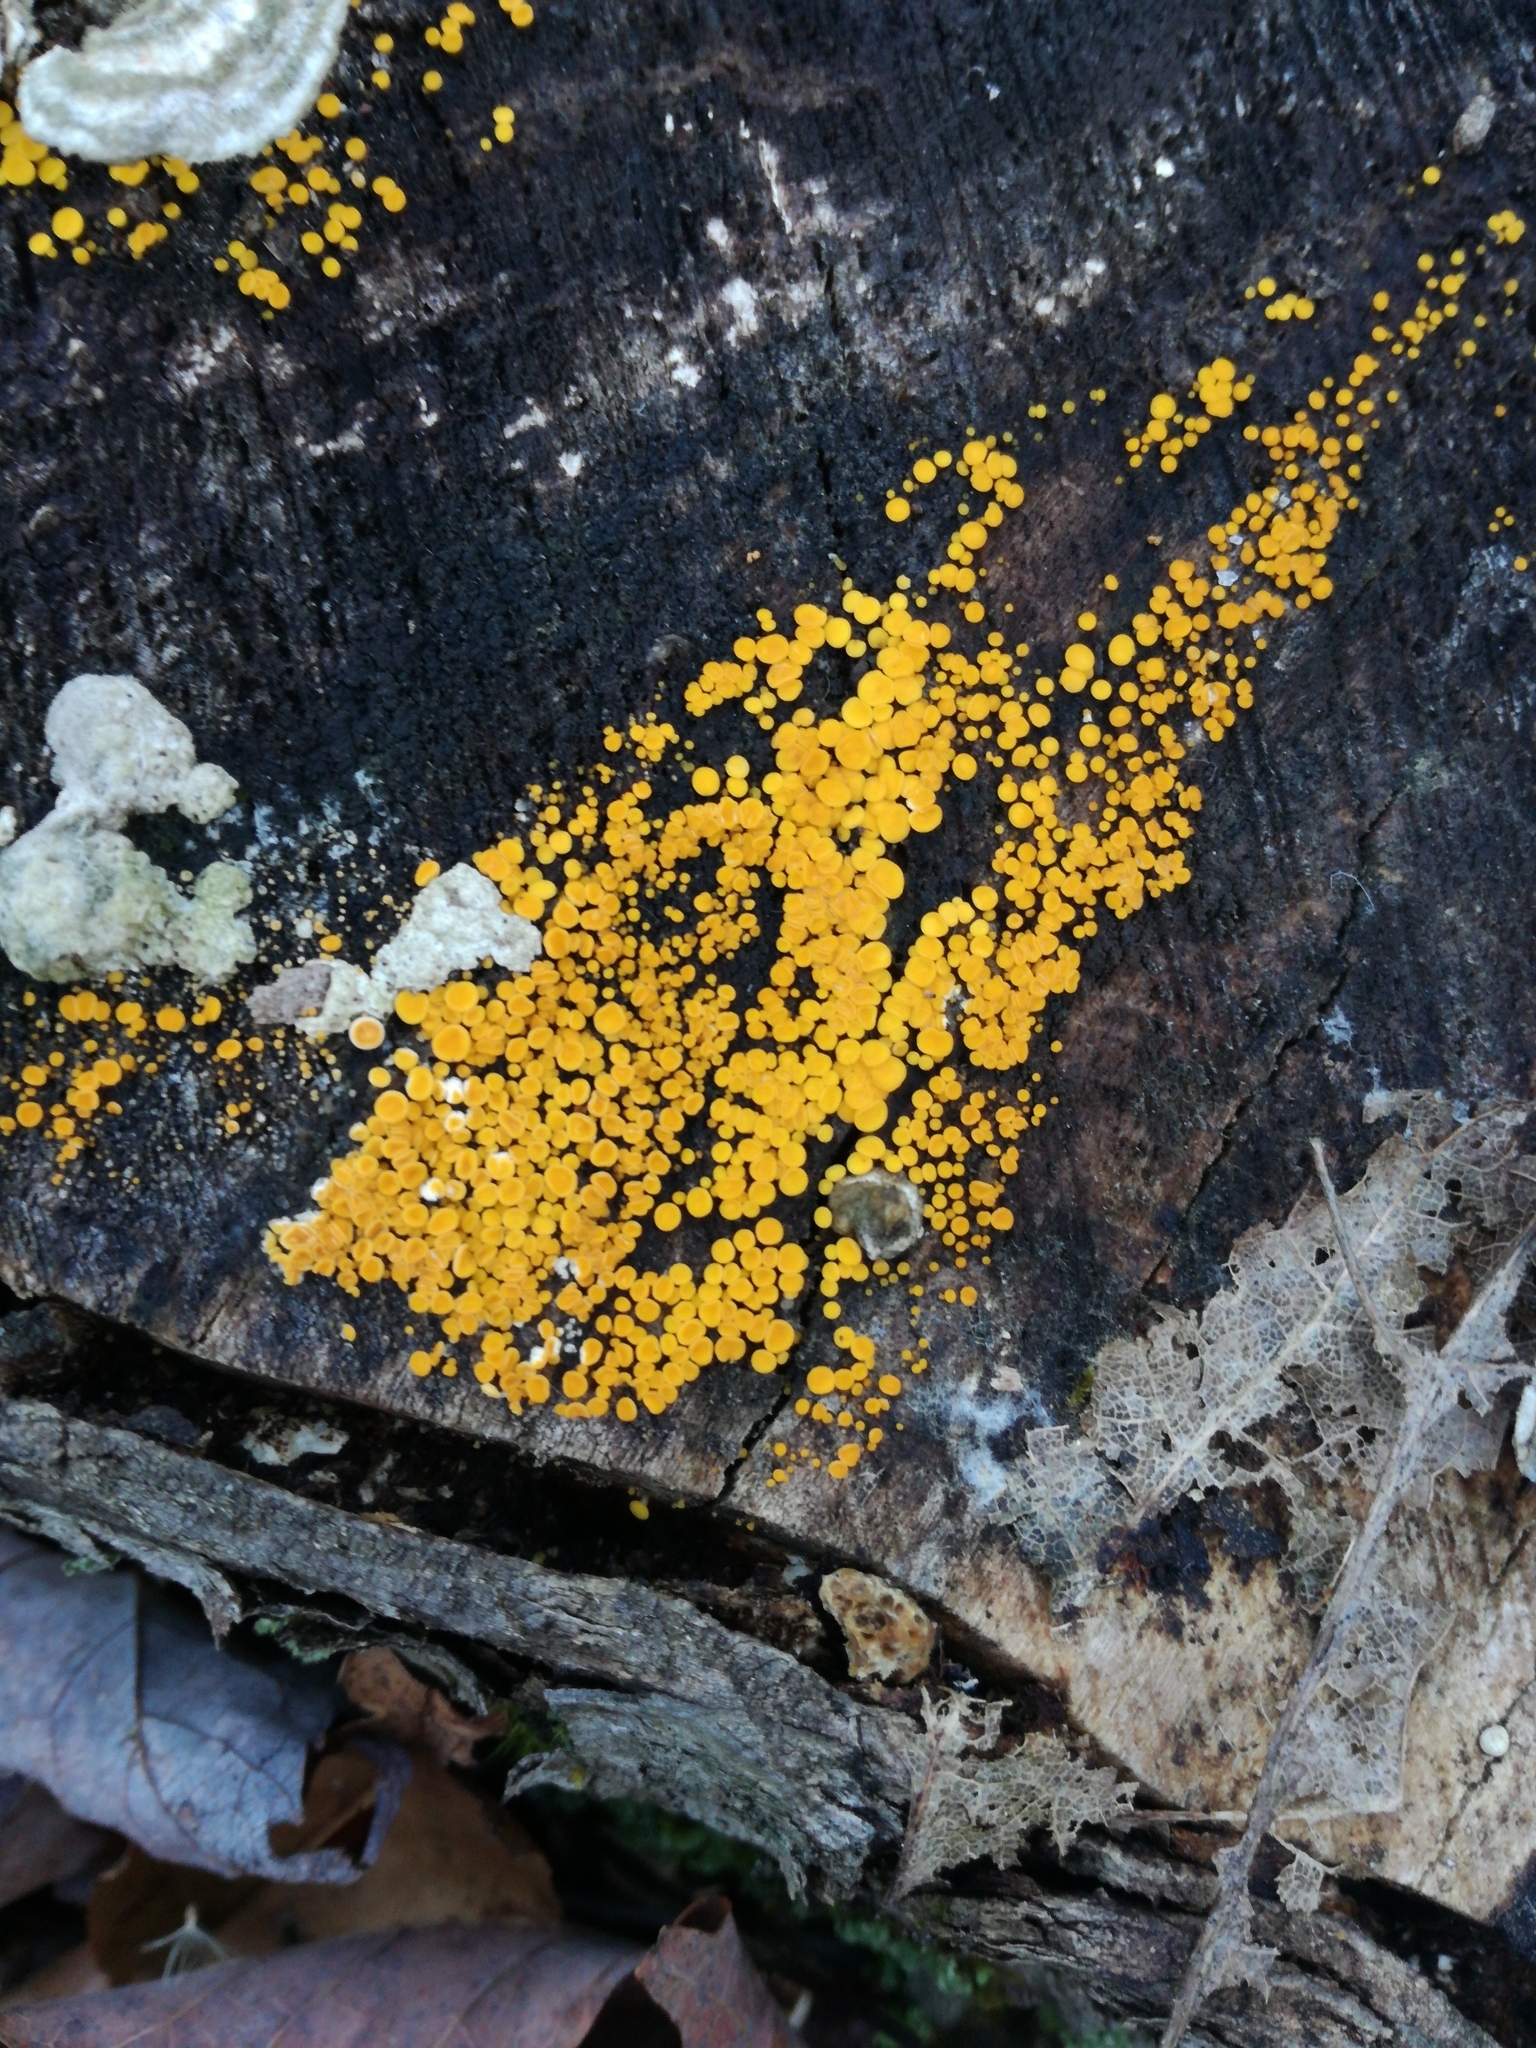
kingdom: Fungi
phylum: Ascomycota
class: Leotiomycetes
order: Helotiales
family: Pezizellaceae
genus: Calycina
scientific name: Calycina citrina
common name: Yellow fairy cups
